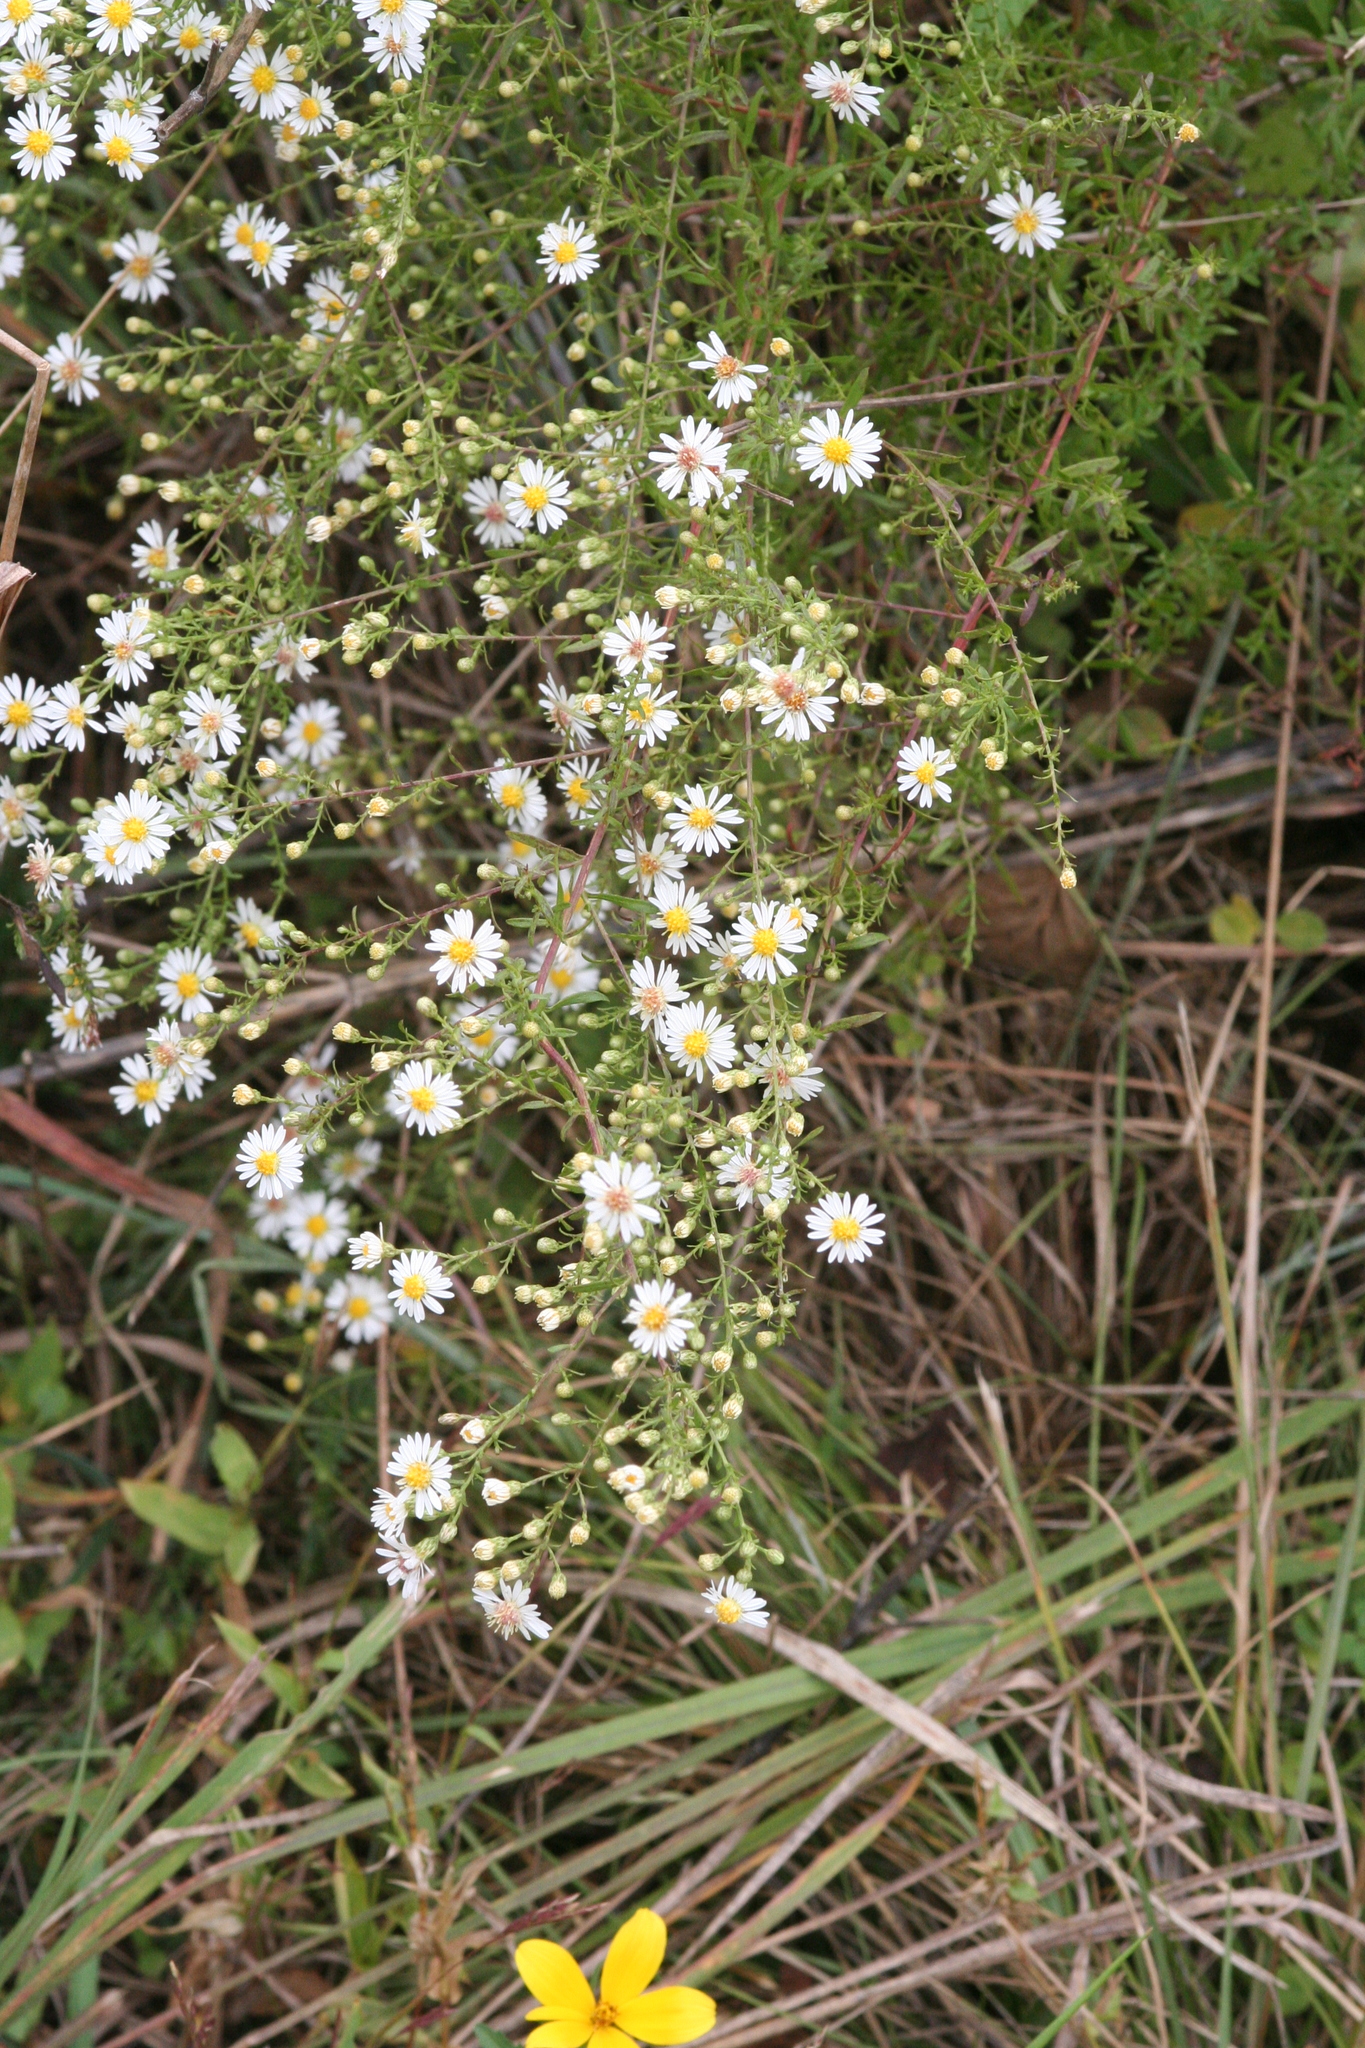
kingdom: Plantae
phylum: Tracheophyta
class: Magnoliopsida
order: Asterales
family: Asteraceae
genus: Symphyotrichum
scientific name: Symphyotrichum dumosum
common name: Bushy aster
